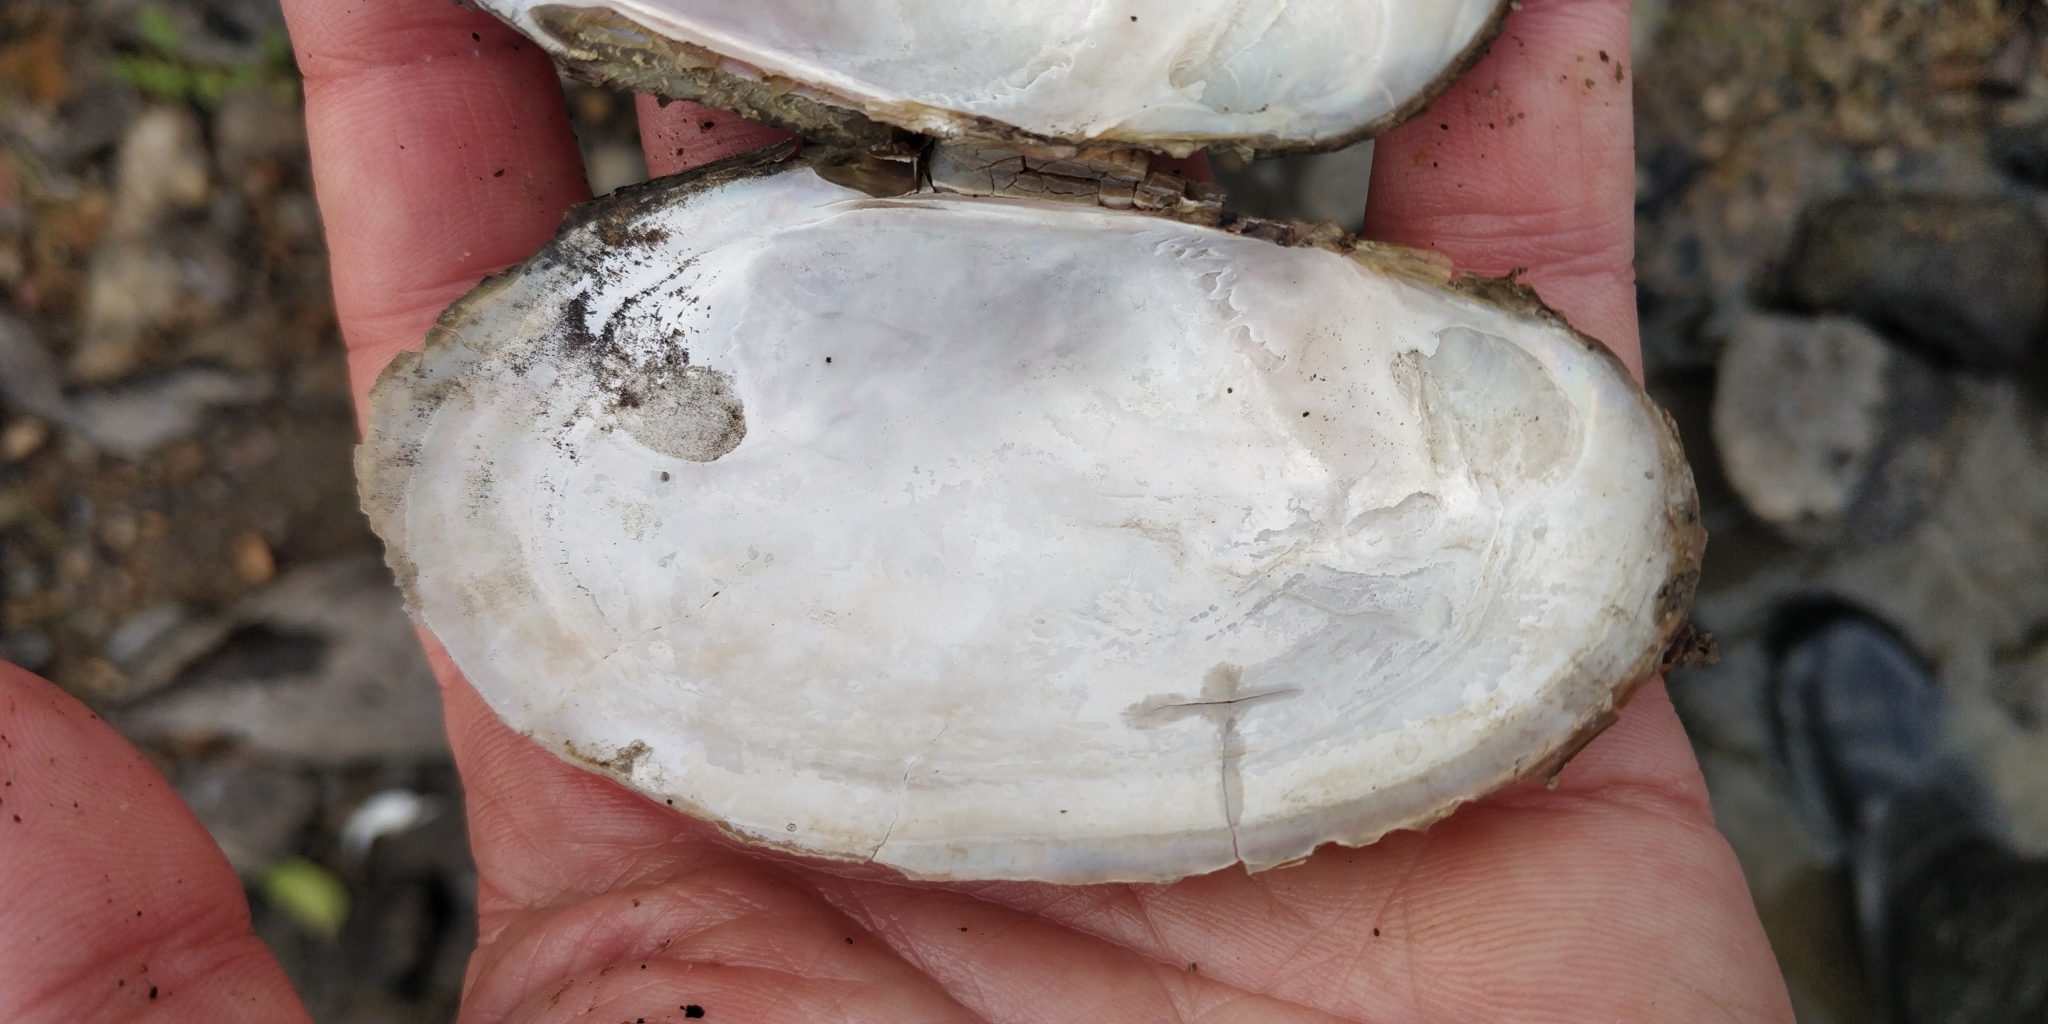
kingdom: Animalia
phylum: Mollusca
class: Bivalvia
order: Unionida
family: Unionidae
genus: Potamilus
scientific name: Potamilus fragilis
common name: Fragile papershell
